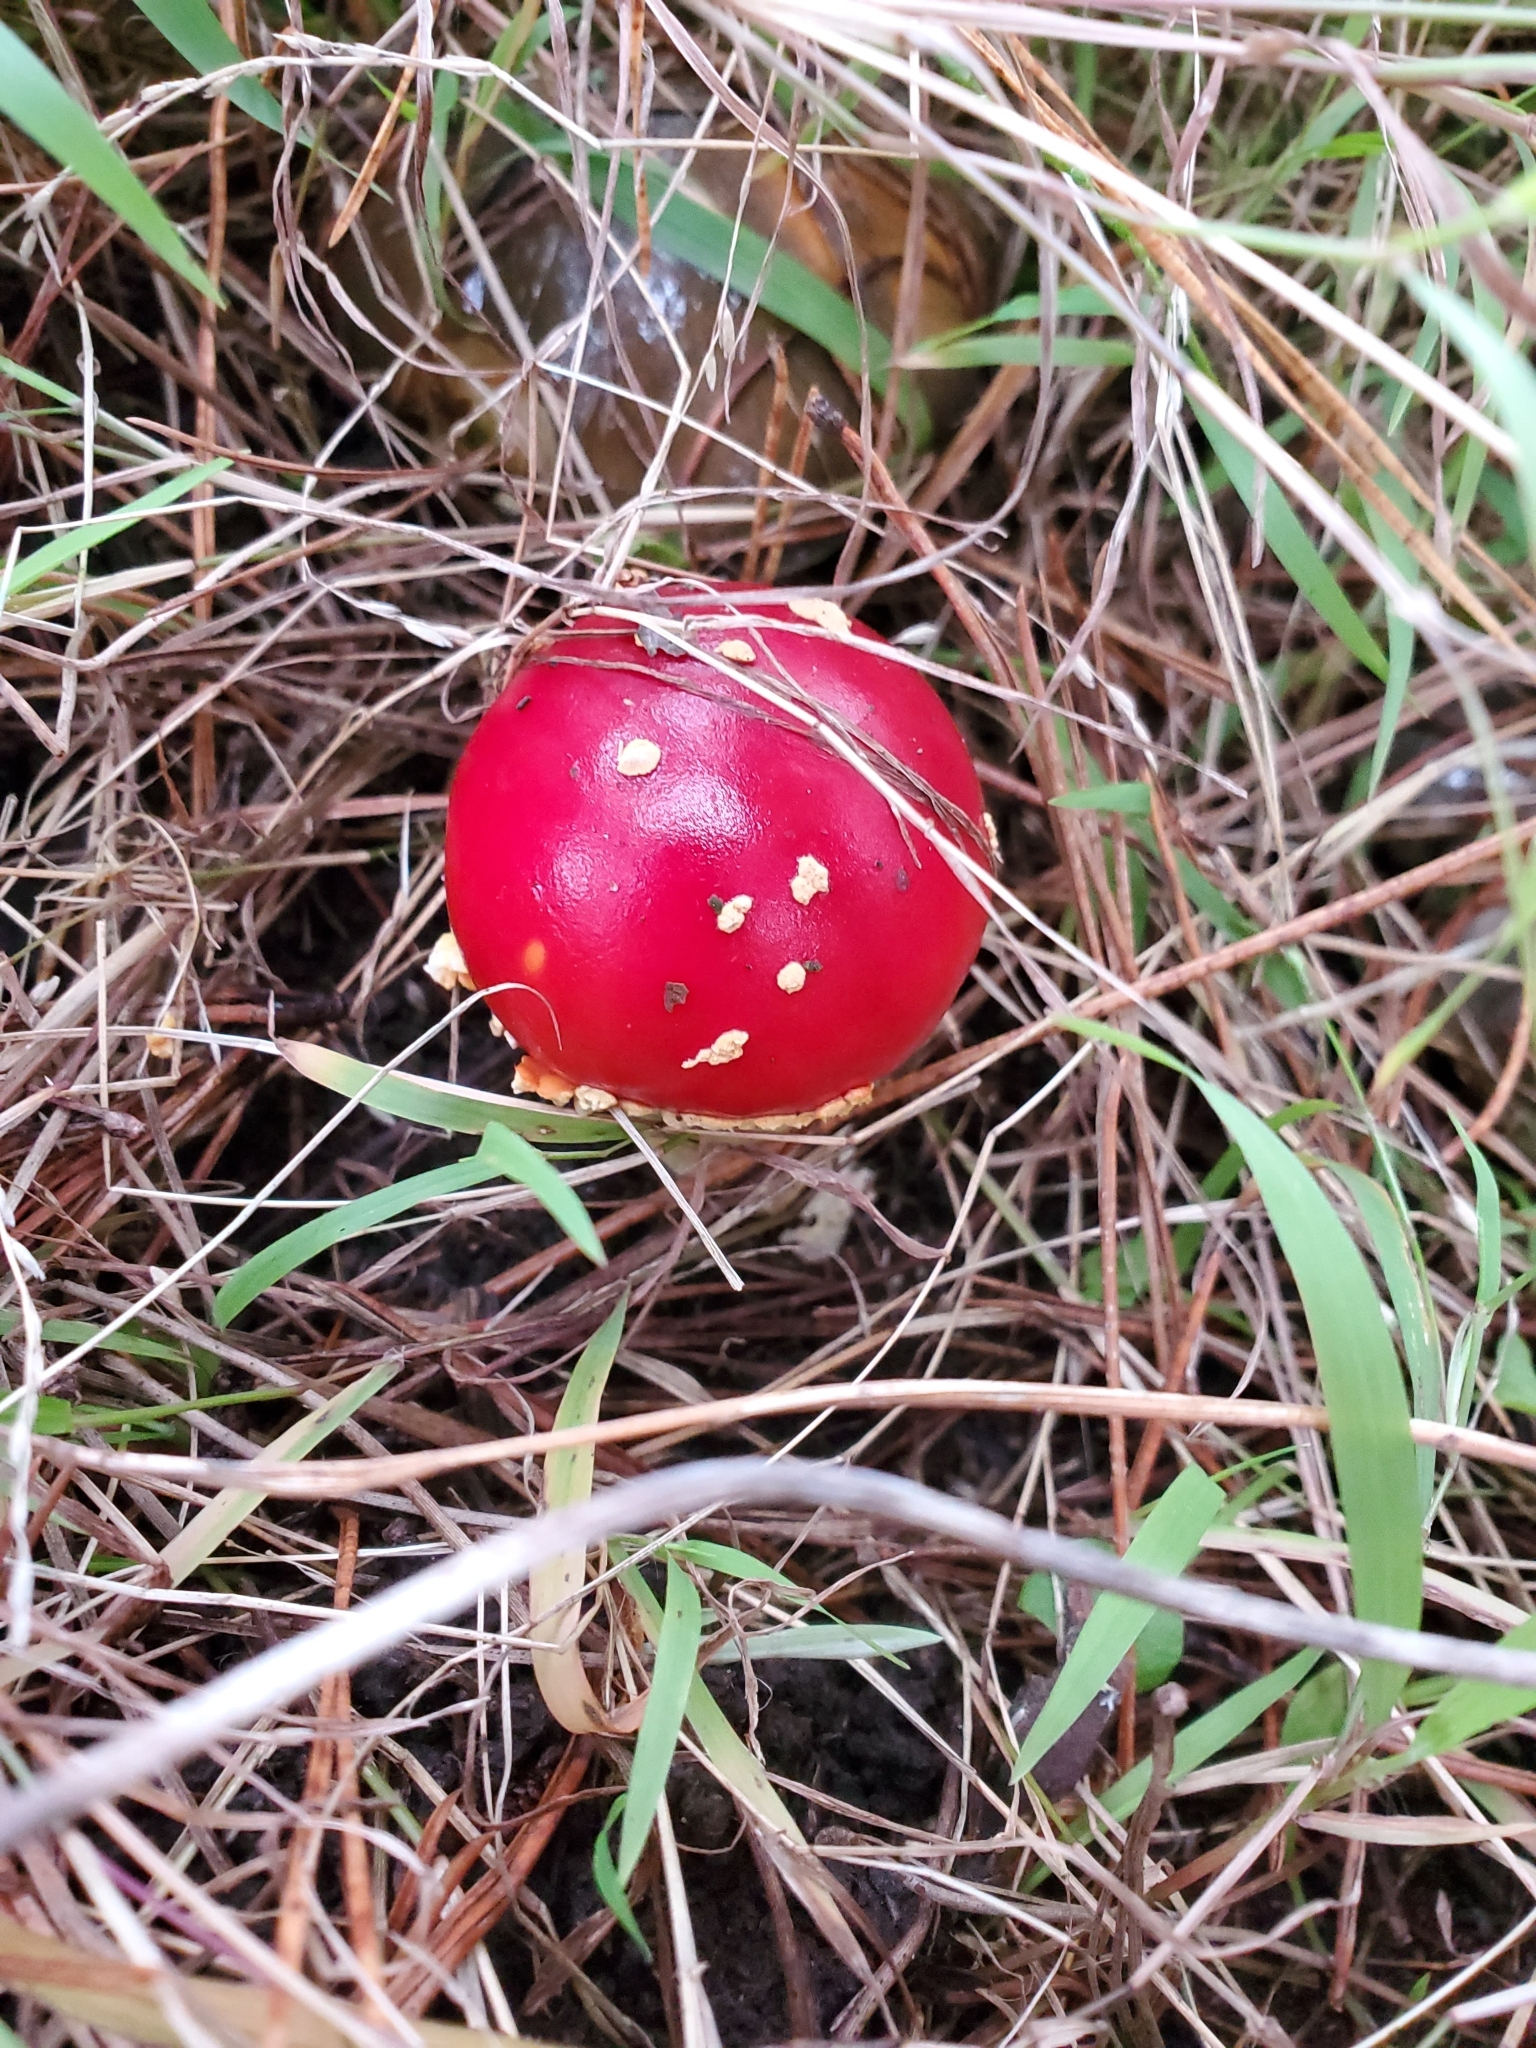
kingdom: Fungi
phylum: Basidiomycota
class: Agaricomycetes
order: Agaricales
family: Amanitaceae
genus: Amanita
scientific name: Amanita muscaria
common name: Fly agaric
